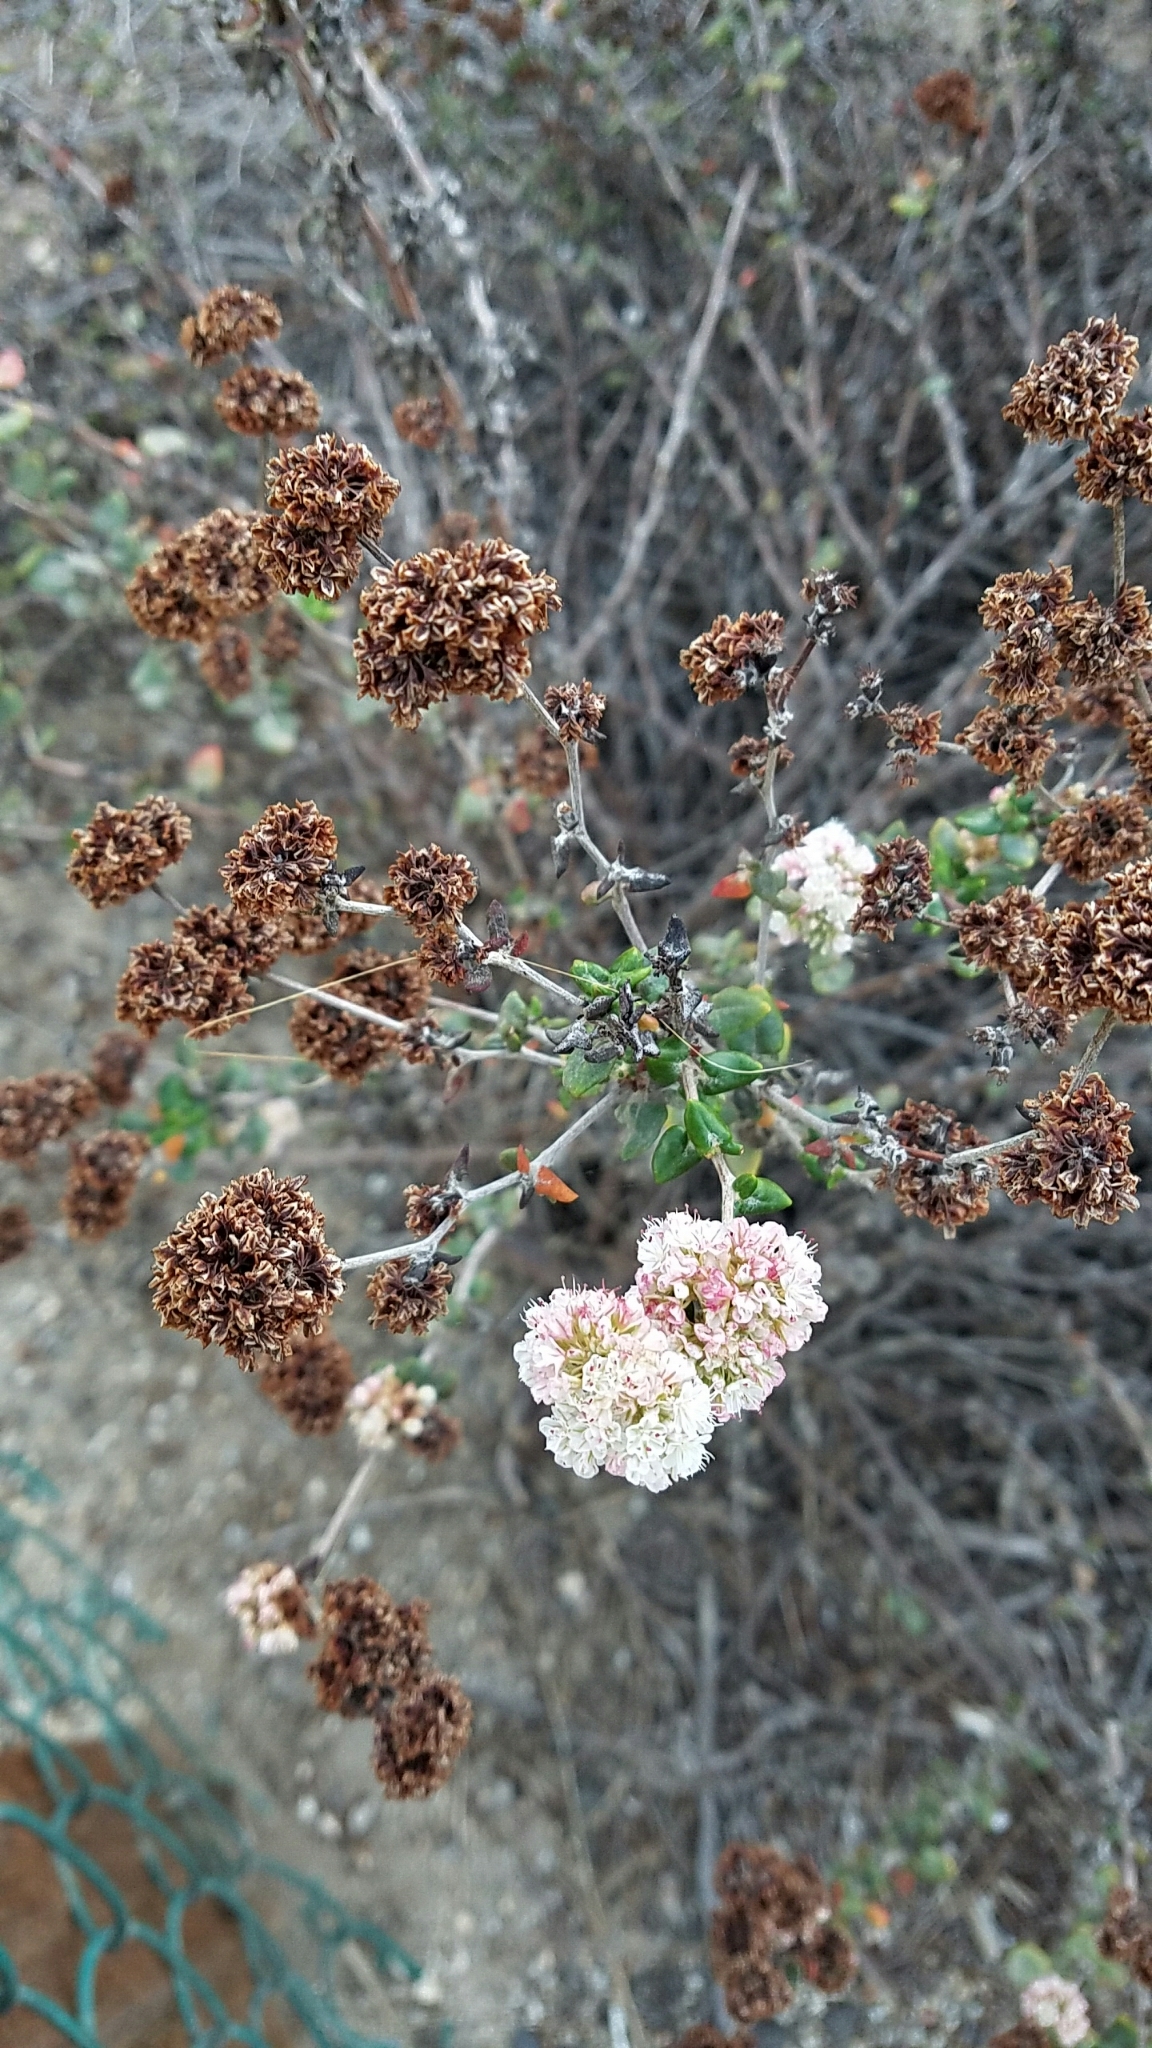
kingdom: Plantae
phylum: Tracheophyta
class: Magnoliopsida
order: Caryophyllales
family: Polygonaceae
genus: Eriogonum
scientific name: Eriogonum parvifolium
